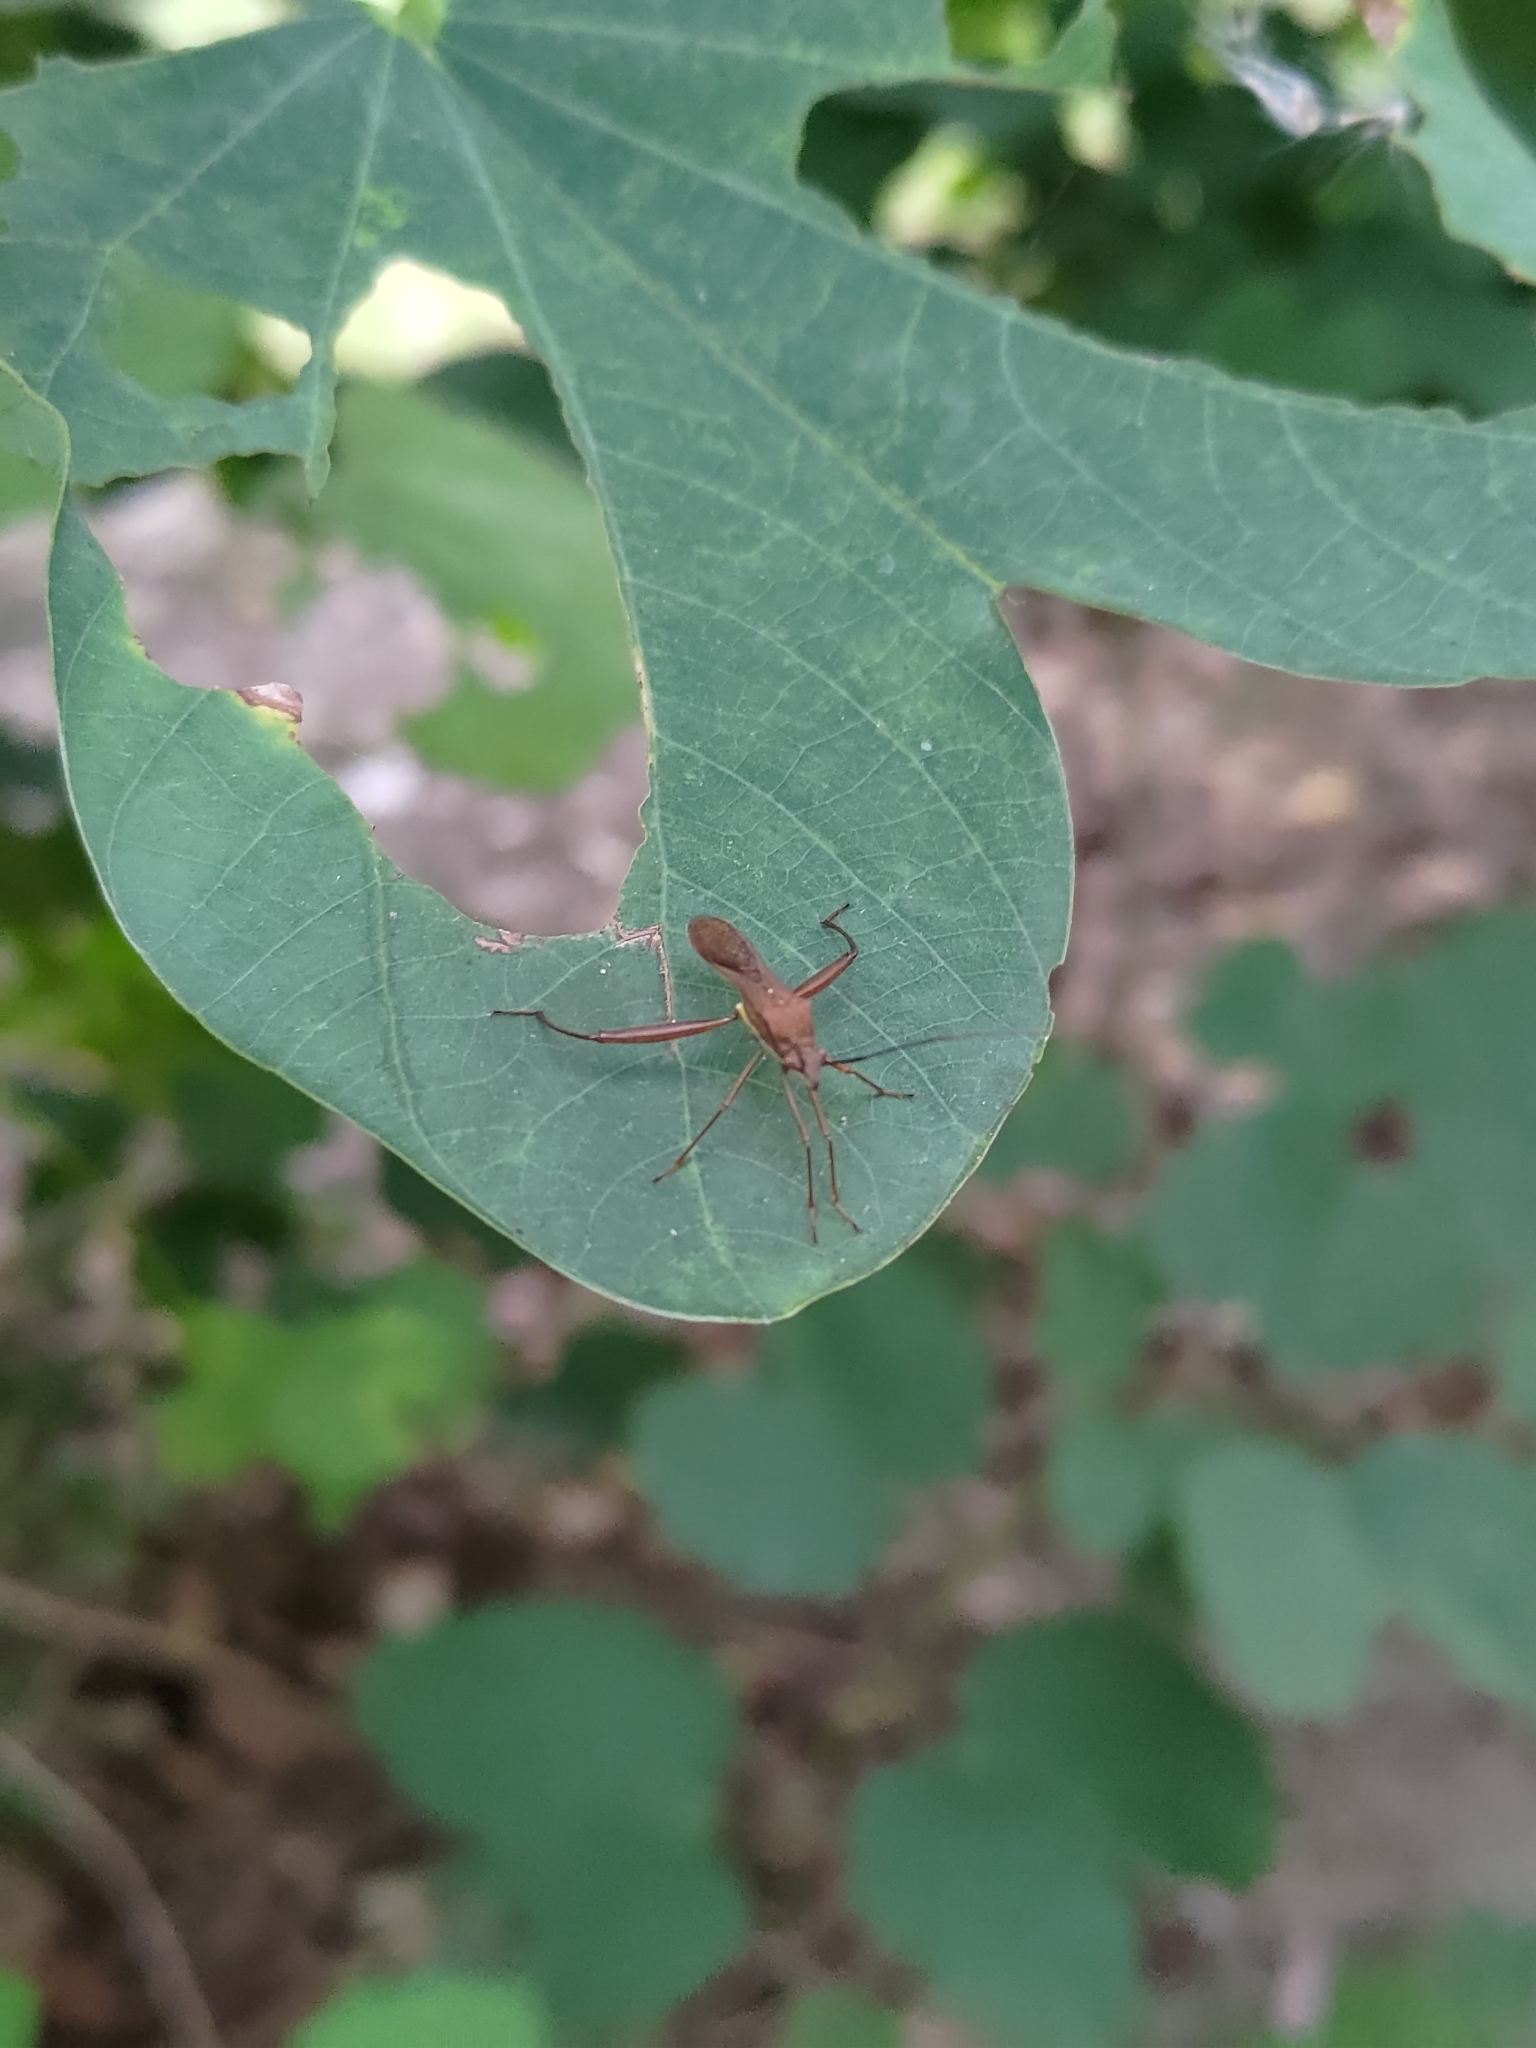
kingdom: Animalia
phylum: Arthropoda
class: Insecta
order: Hemiptera
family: Alydidae
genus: Riptortus
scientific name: Riptortus linearis
